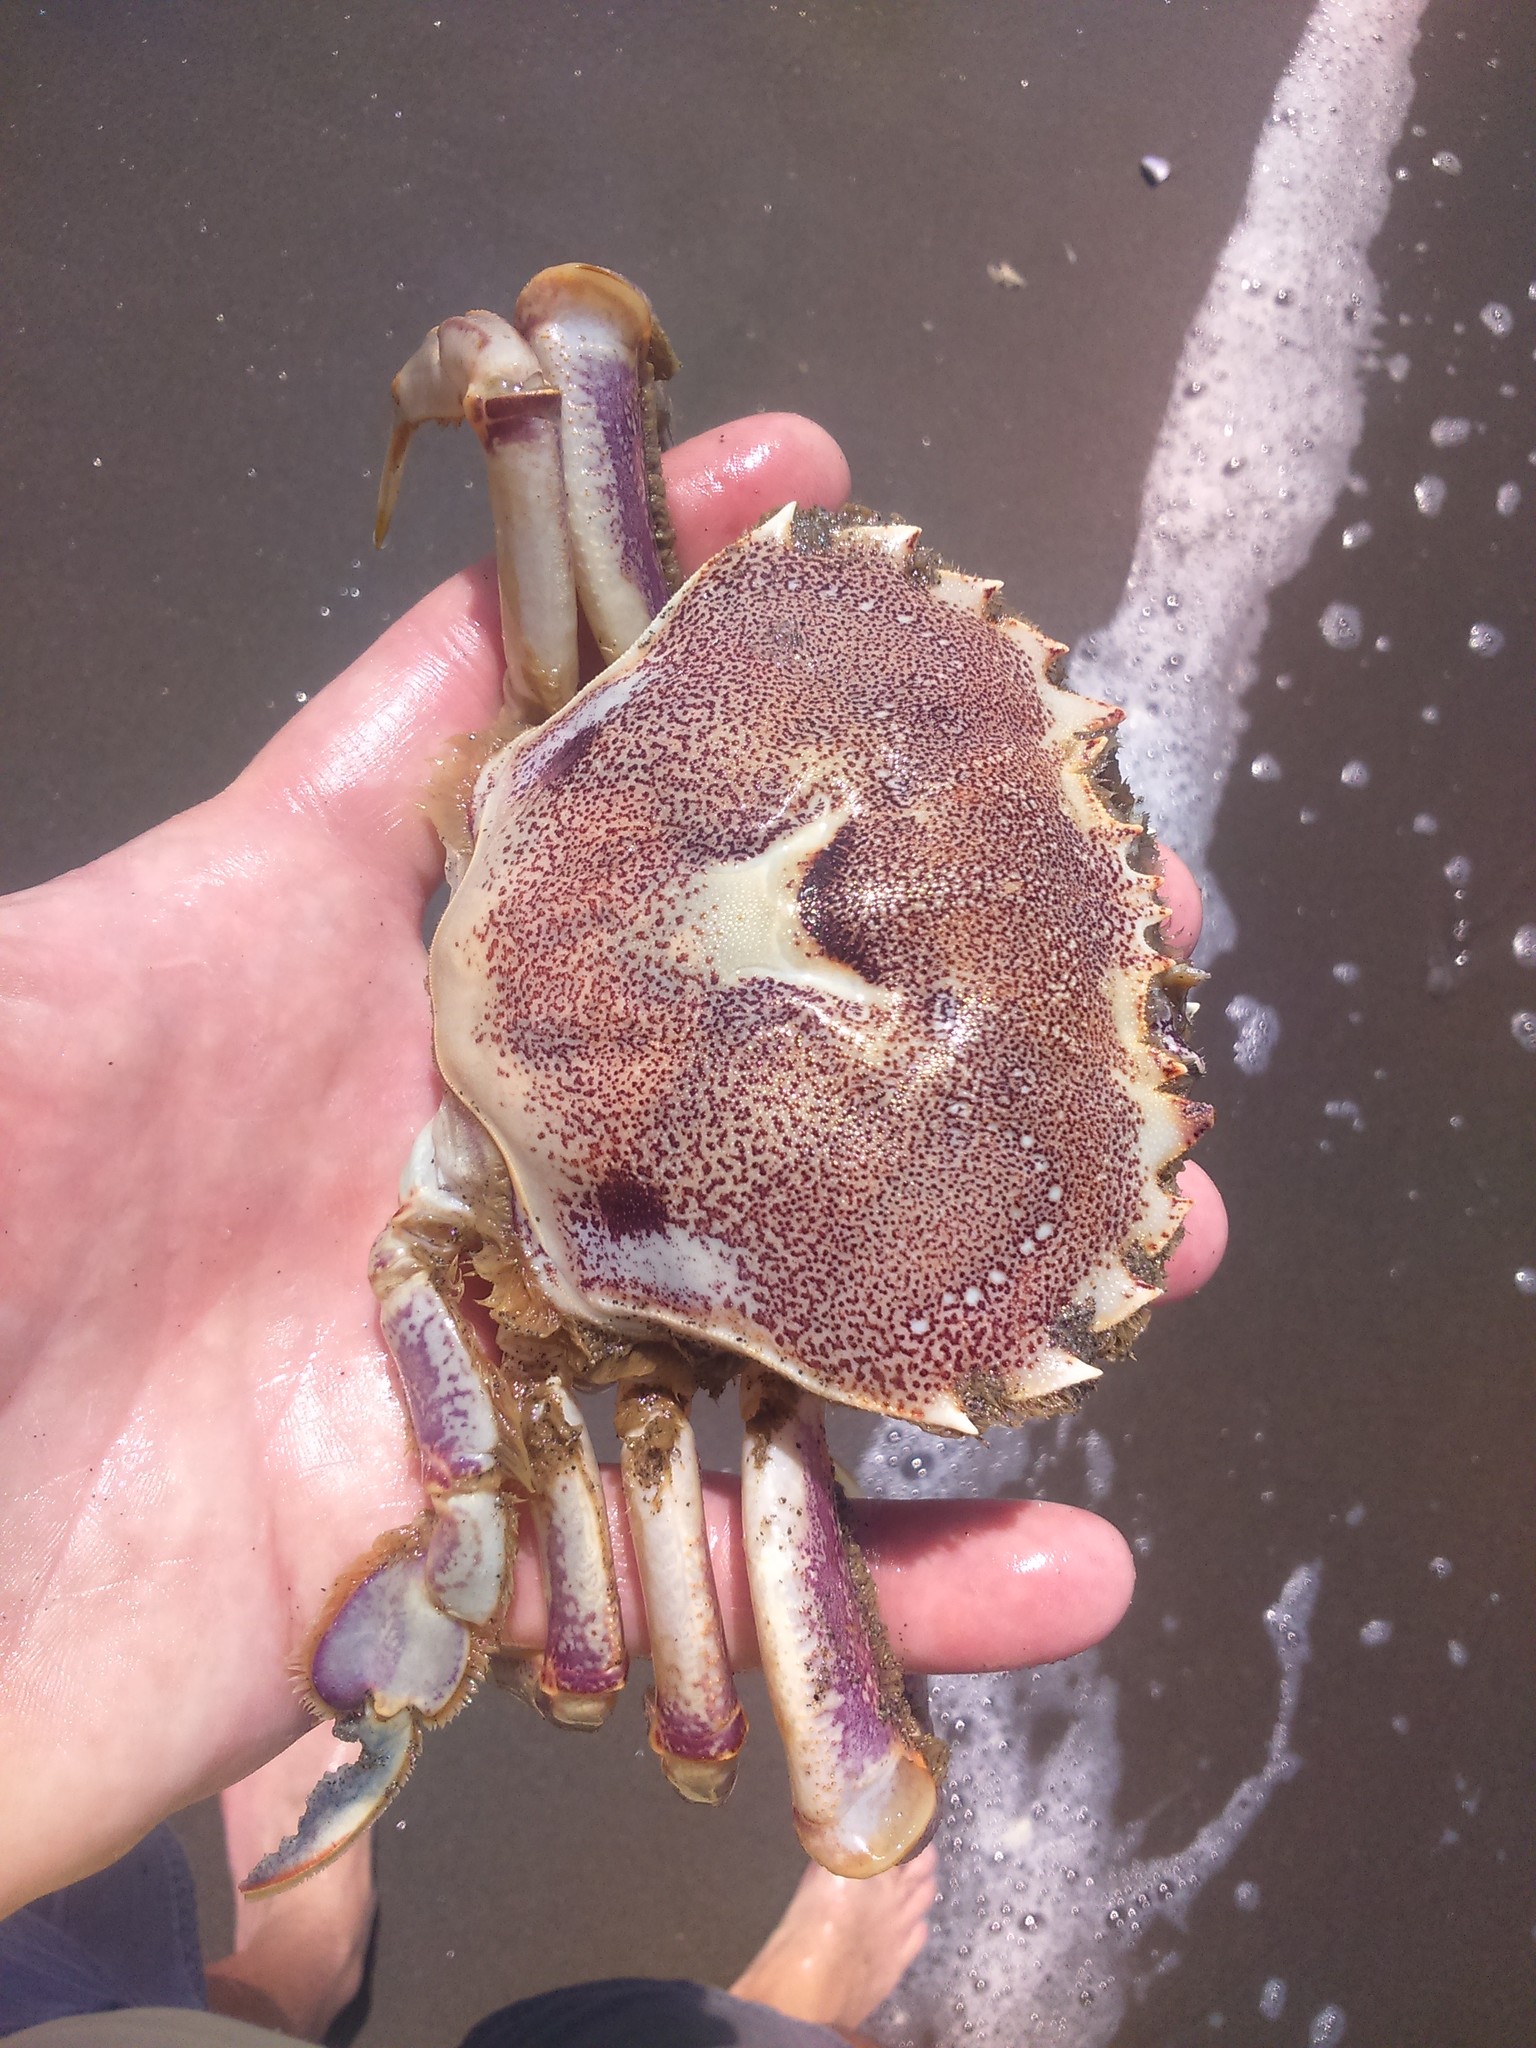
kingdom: Animalia
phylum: Arthropoda
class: Malacostraca
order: Decapoda
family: Ovalipidae
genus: Ovalipes
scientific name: Ovalipes trimaculatus
